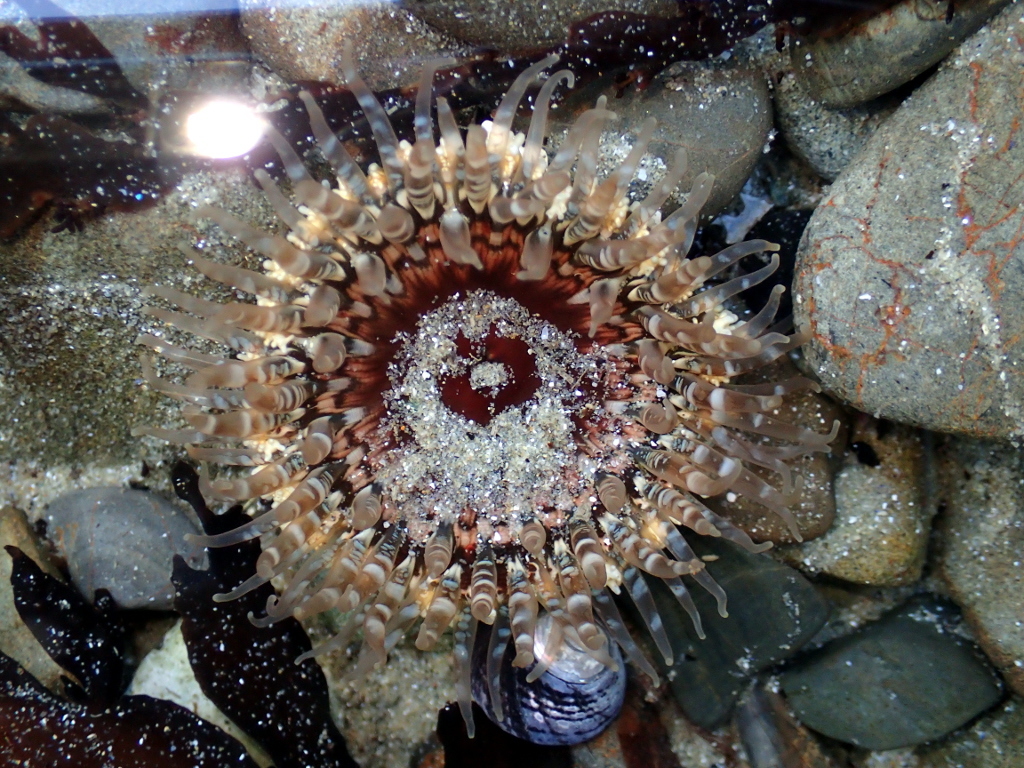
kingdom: Animalia
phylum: Cnidaria
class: Anthozoa
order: Actiniaria
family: Actiniidae
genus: Oulactis
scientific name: Oulactis muscosa
